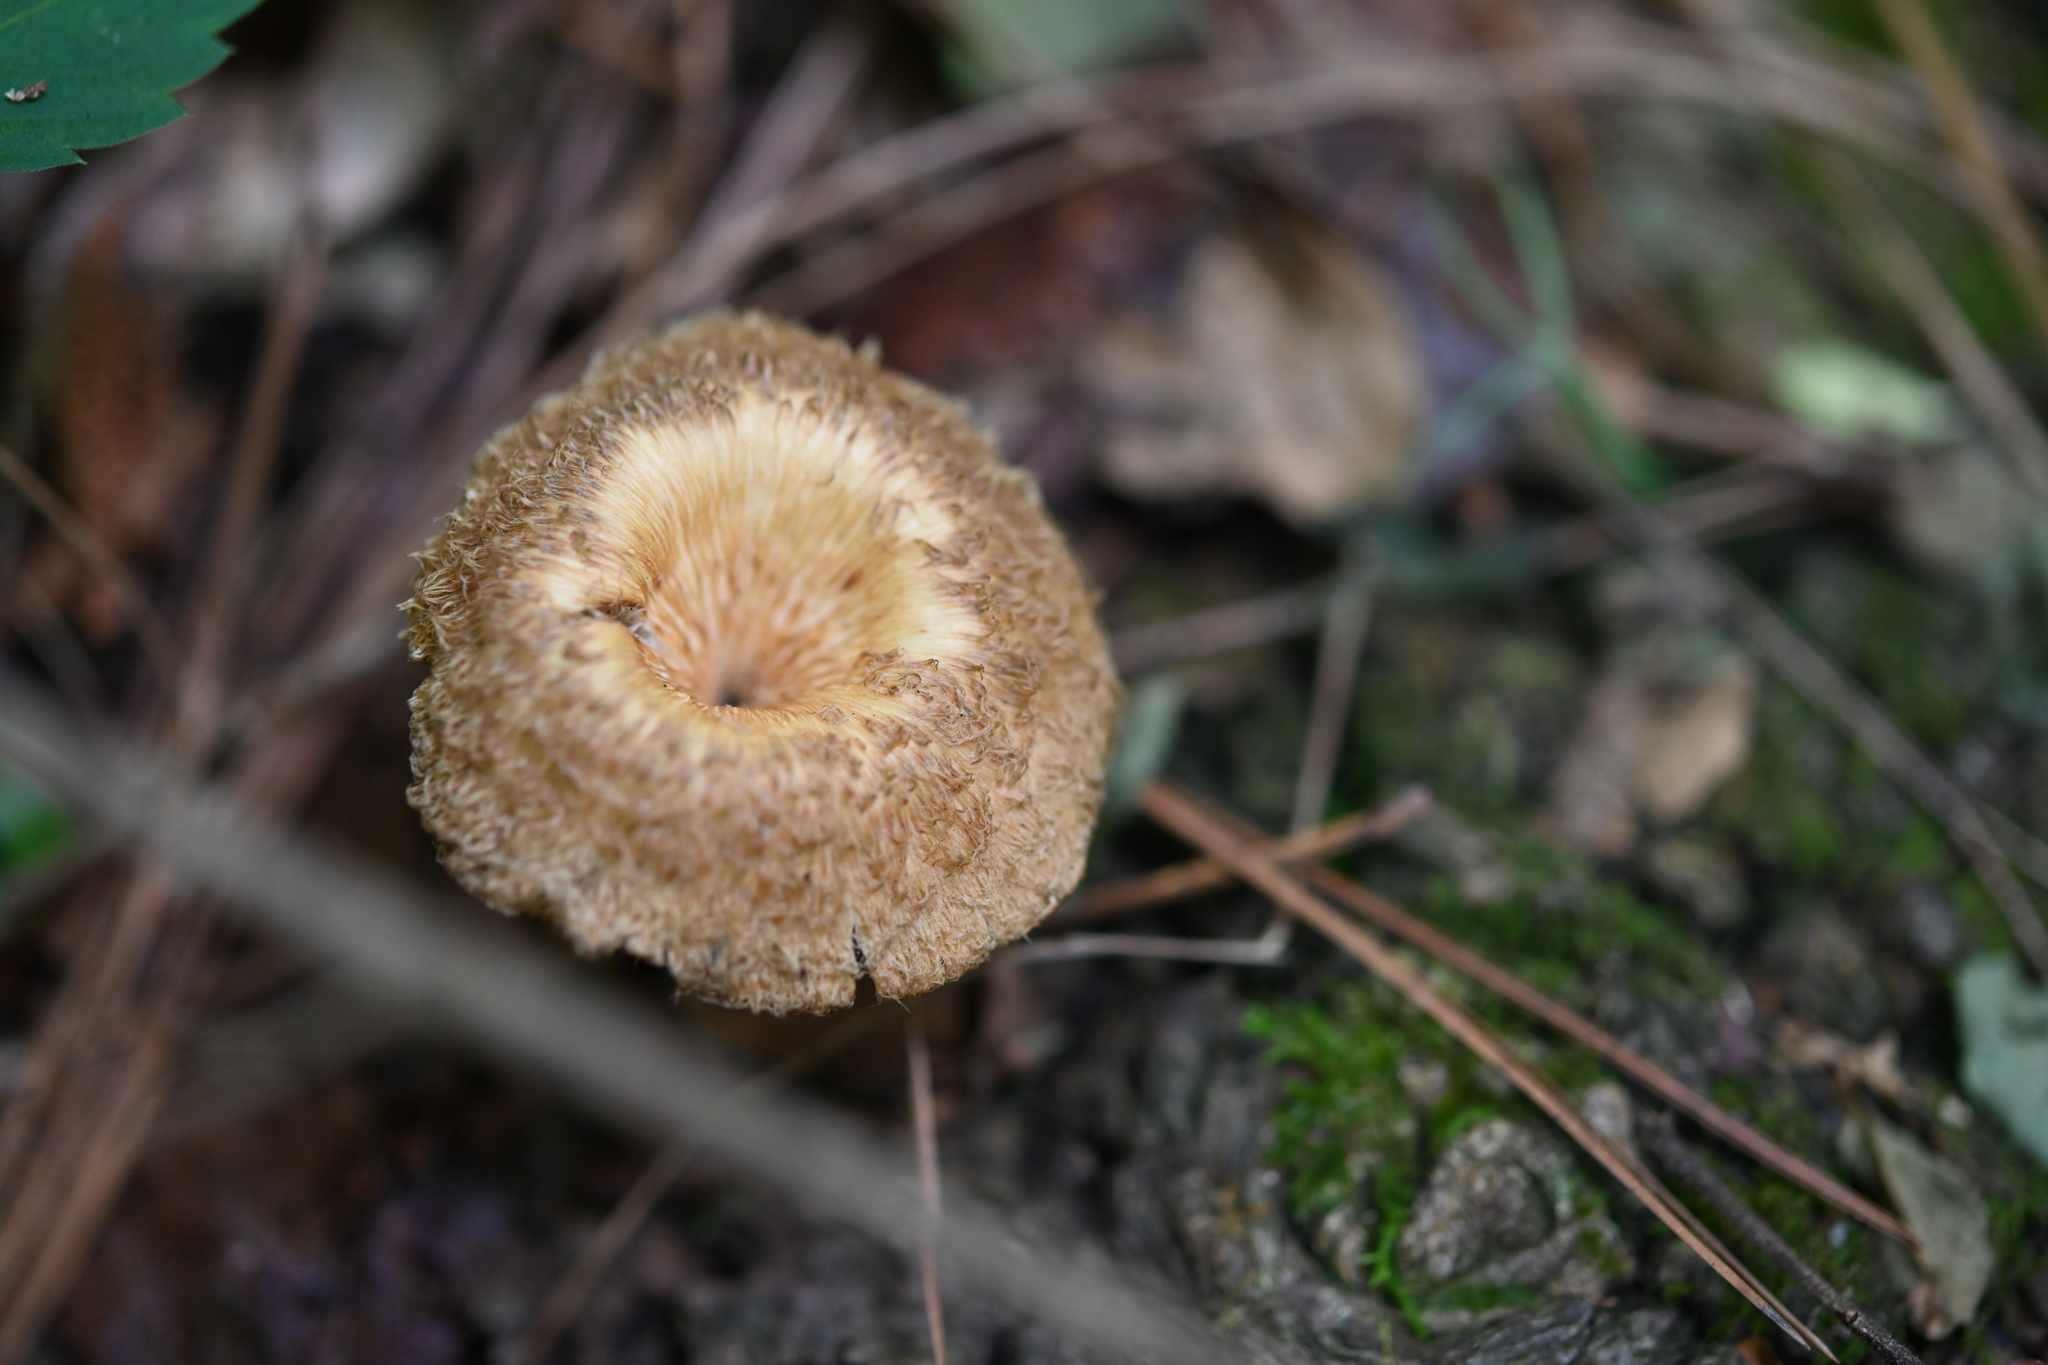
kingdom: Fungi
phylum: Basidiomycota
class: Agaricomycetes
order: Polyporales
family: Polyporaceae
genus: Lentinus
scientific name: Lentinus crinitus
